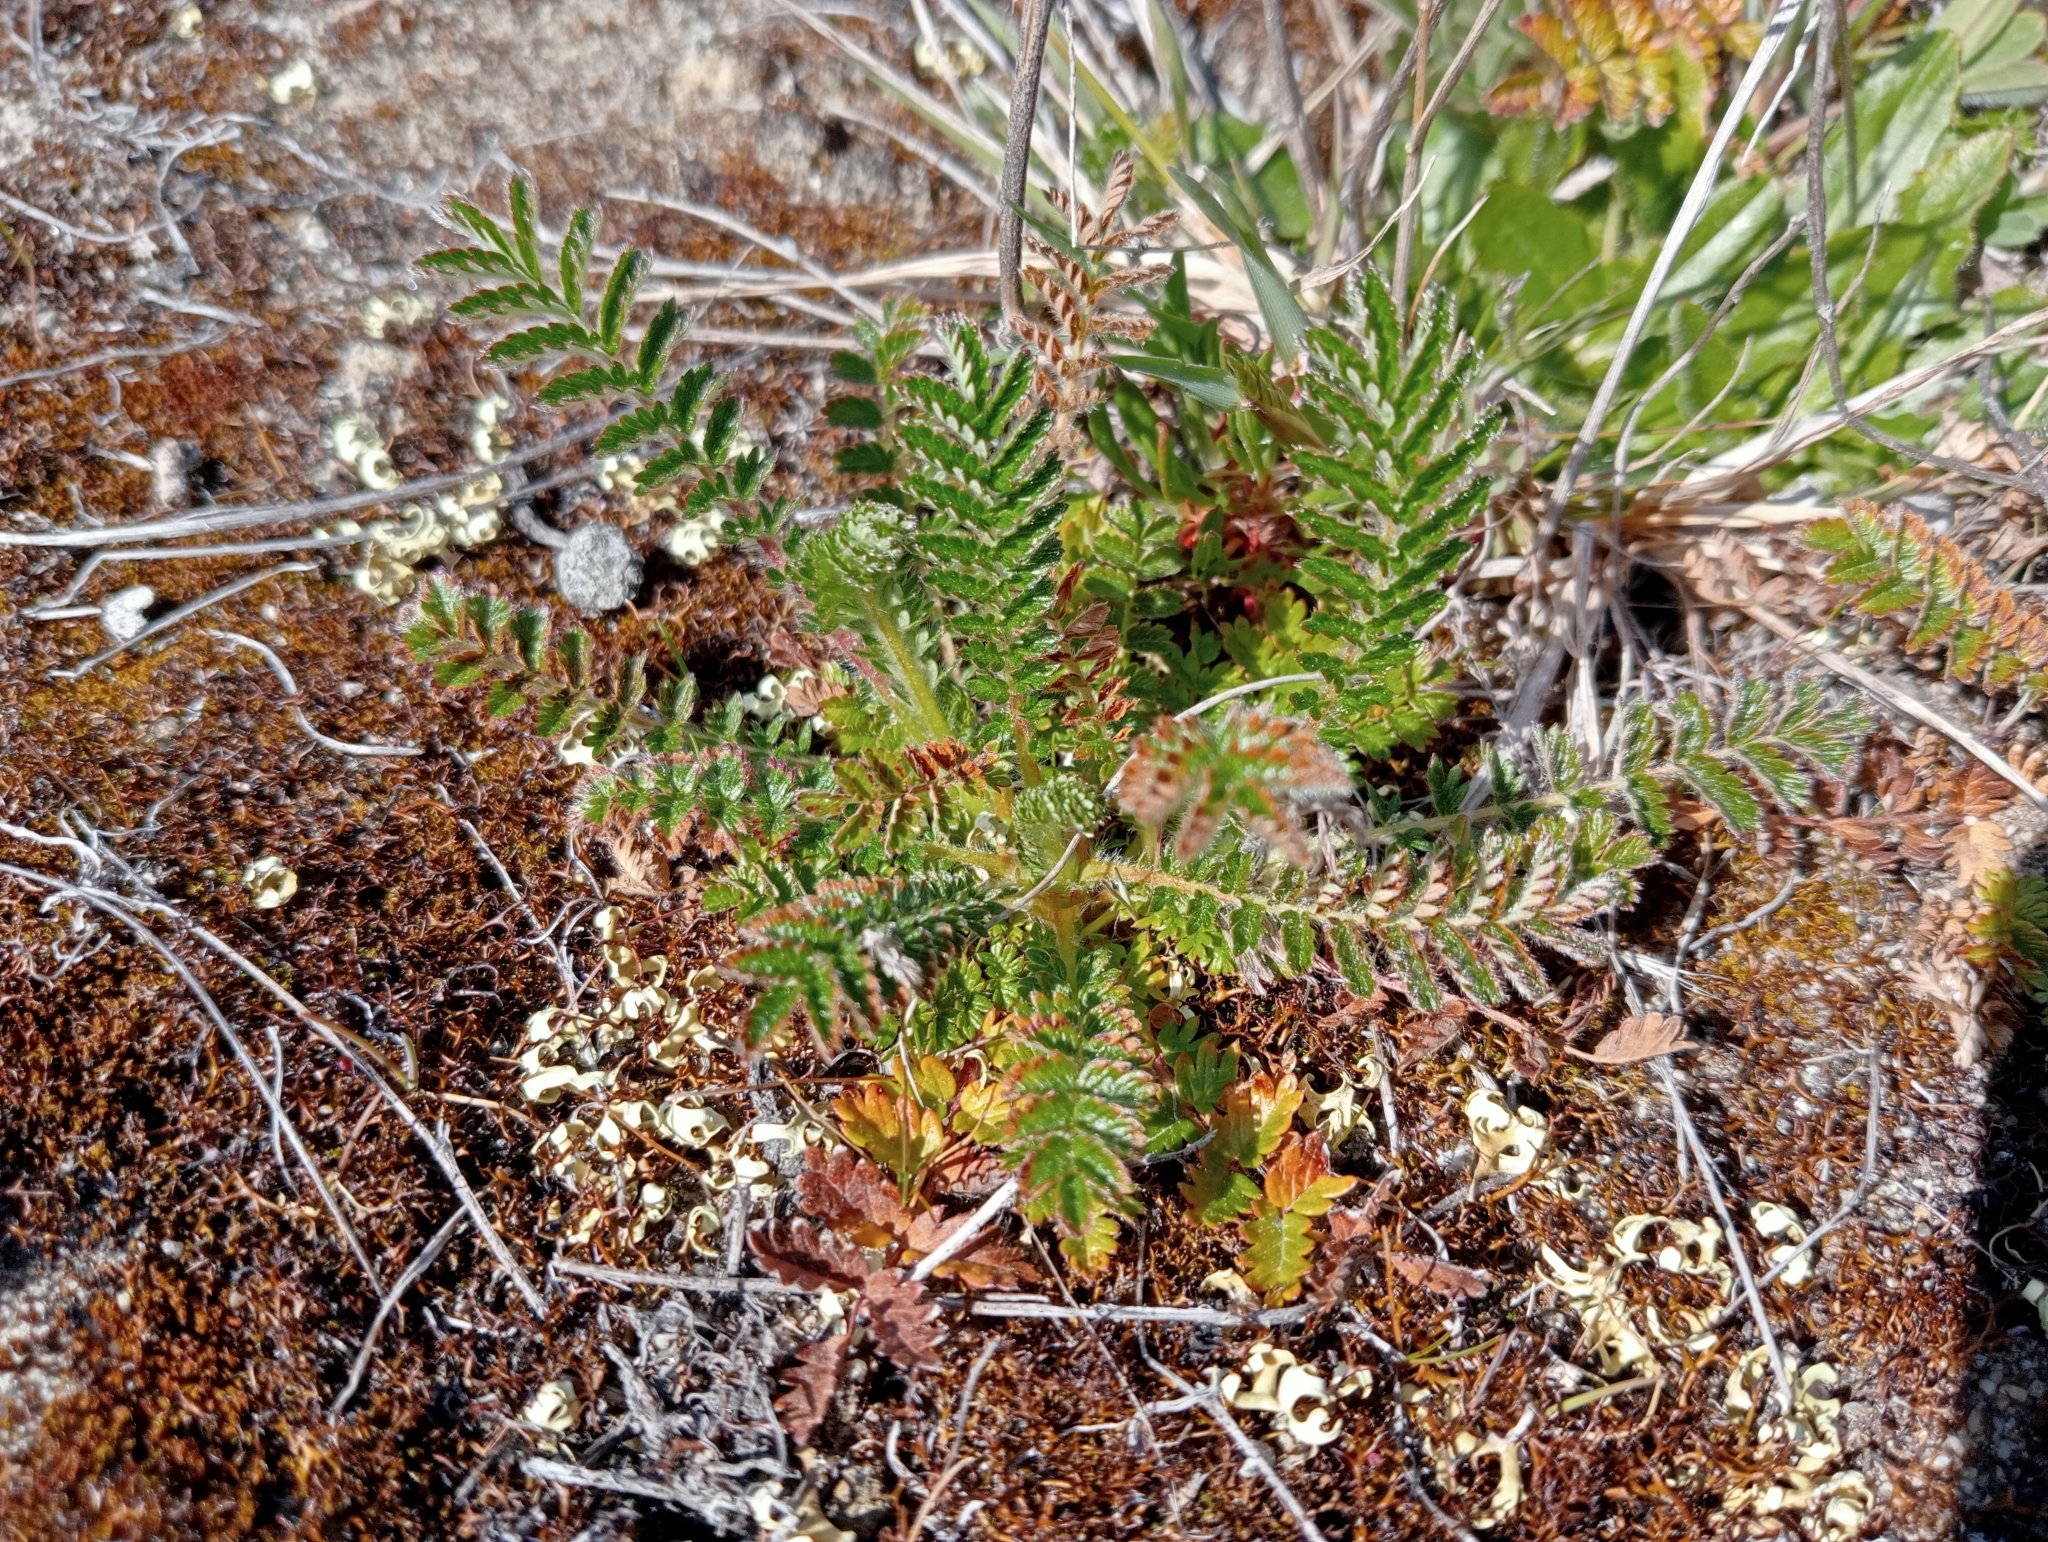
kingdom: Plantae
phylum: Tracheophyta
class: Magnoliopsida
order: Rosales
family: Rosaceae
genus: Acaena
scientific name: Acaena agnipila
